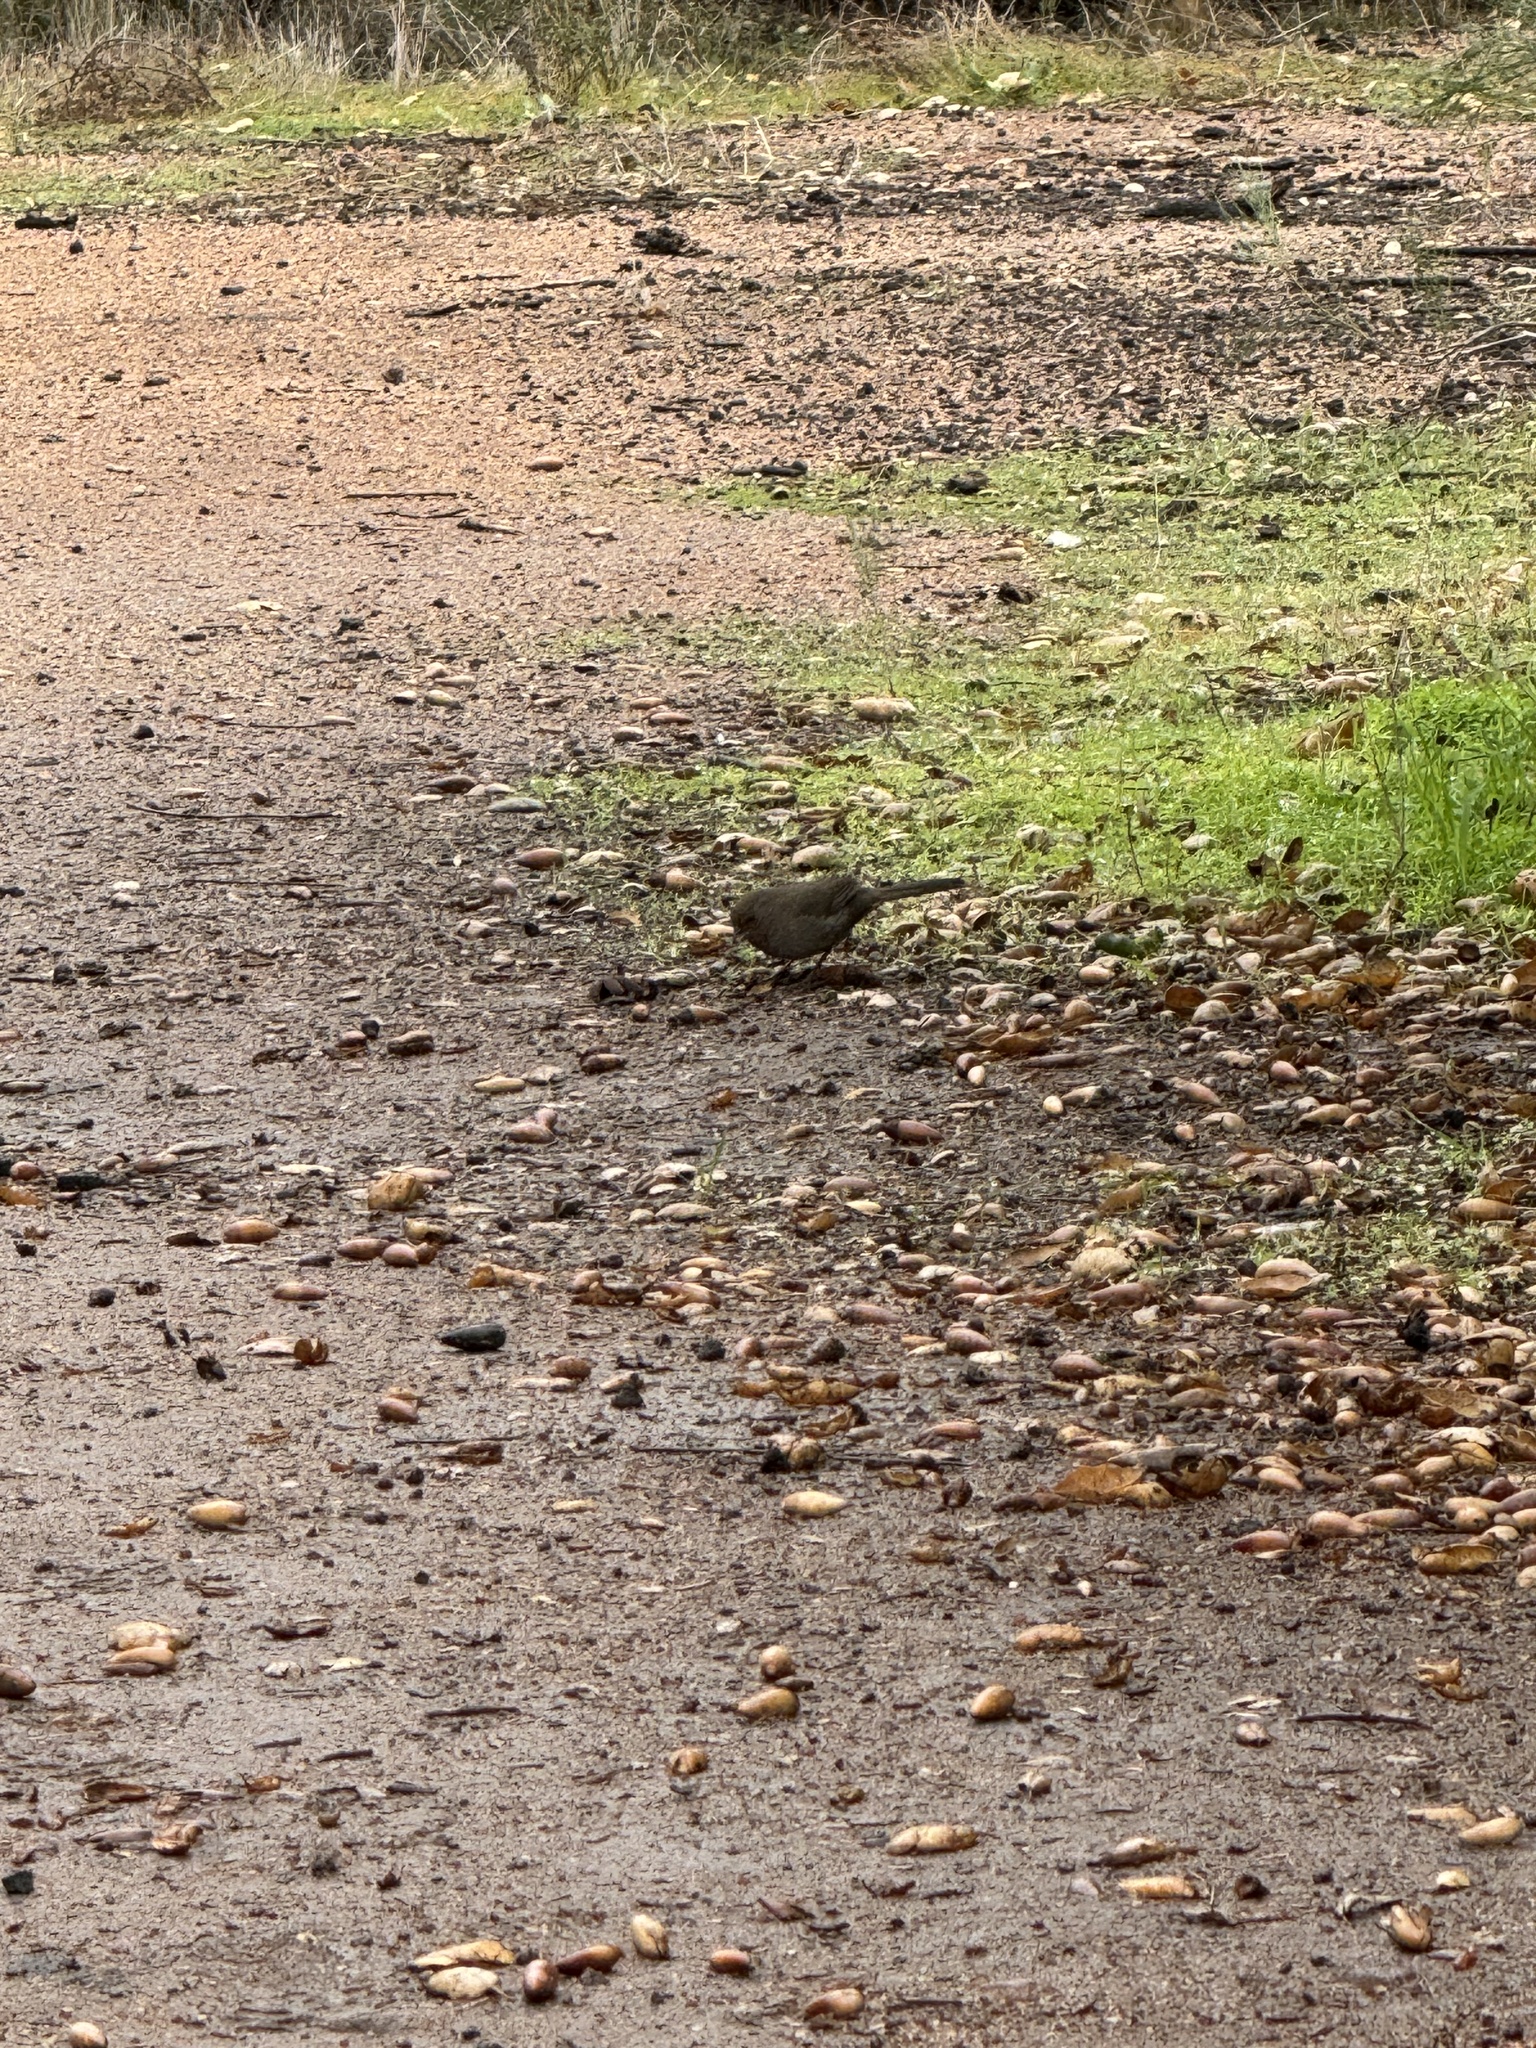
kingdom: Animalia
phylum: Chordata
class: Aves
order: Passeriformes
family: Passerellidae
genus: Melozone
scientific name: Melozone crissalis
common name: California towhee
